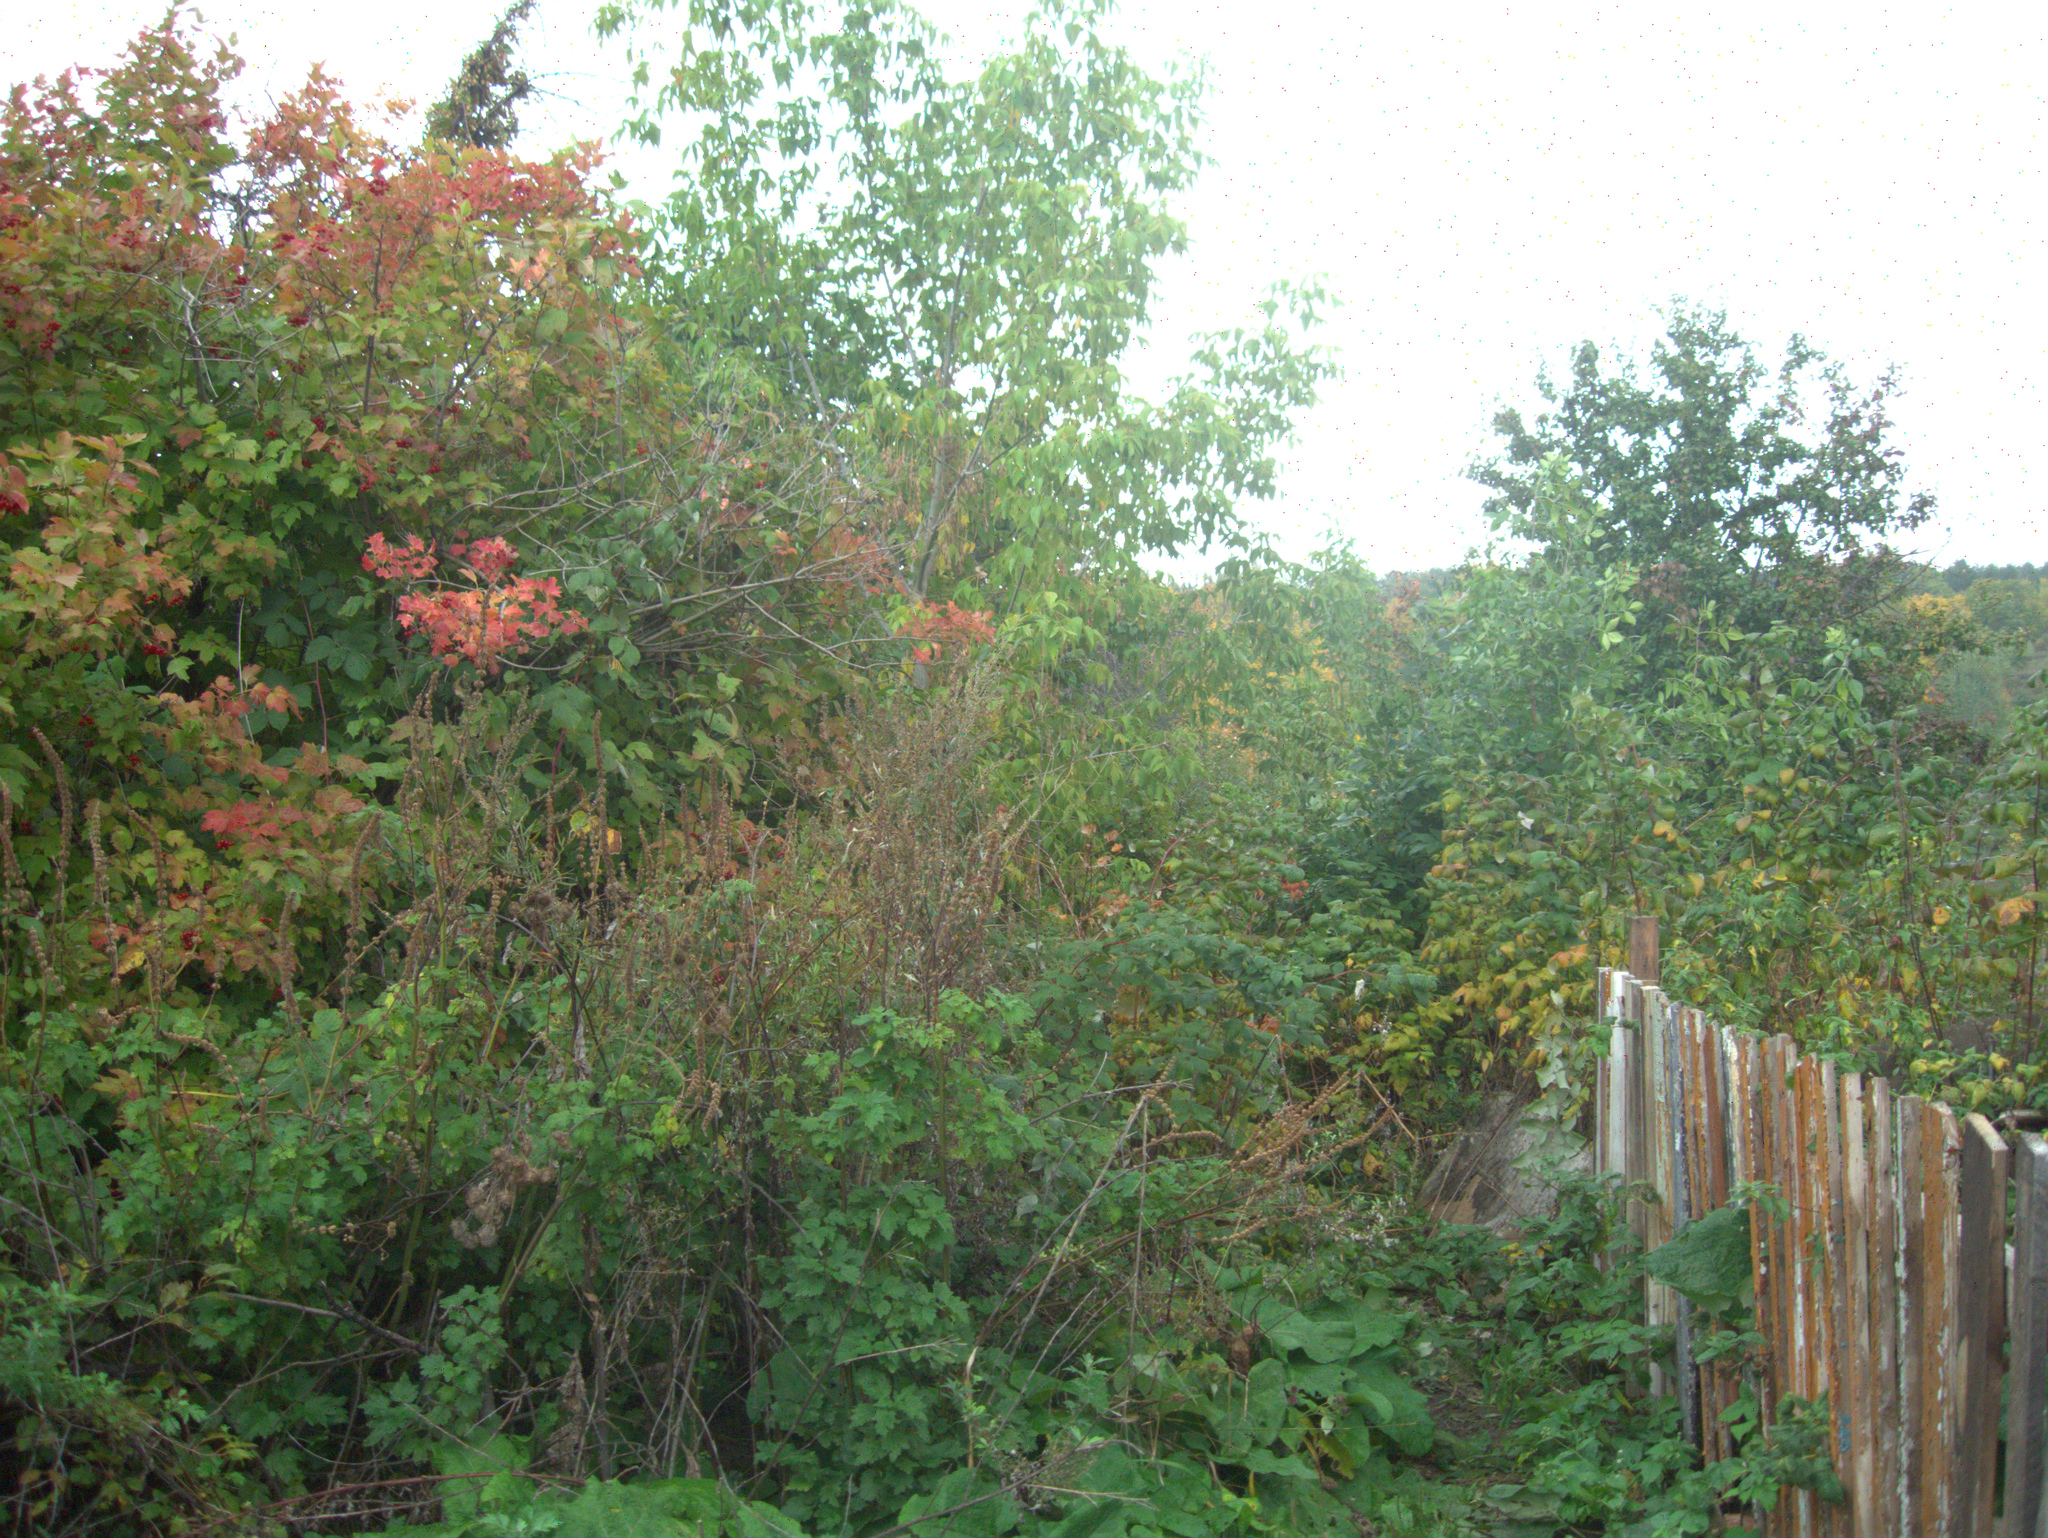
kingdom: Plantae
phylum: Tracheophyta
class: Magnoliopsida
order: Asterales
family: Asteraceae
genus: Arctium
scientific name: Arctium
